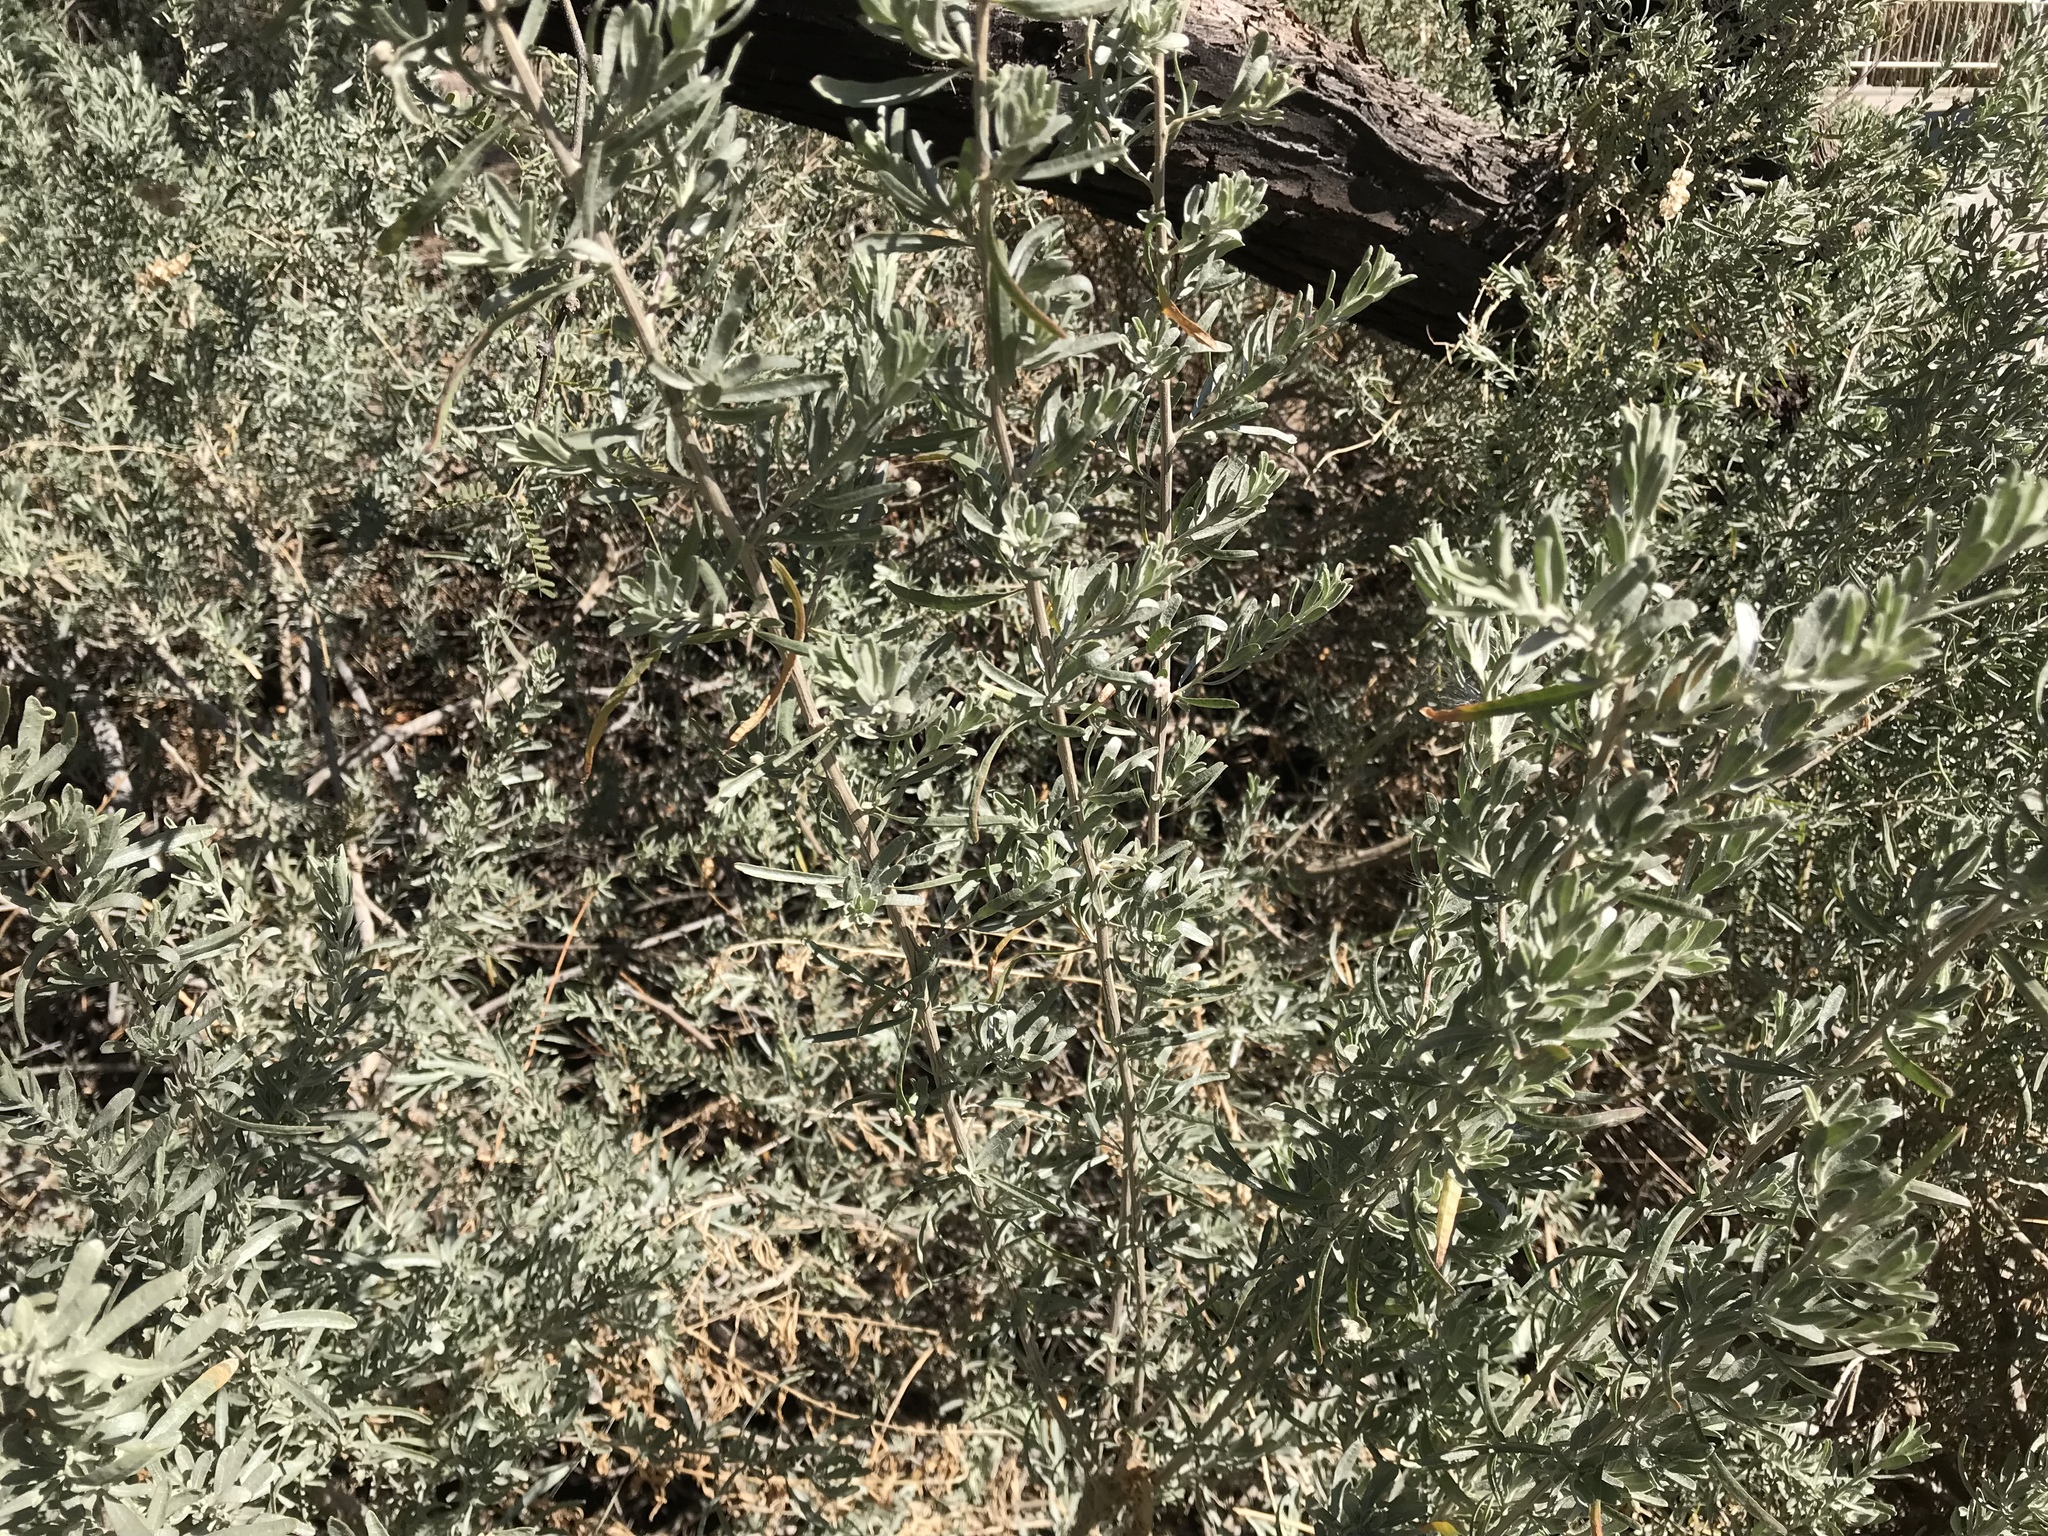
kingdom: Plantae
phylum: Tracheophyta
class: Magnoliopsida
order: Caryophyllales
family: Amaranthaceae
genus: Atriplex
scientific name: Atriplex canescens
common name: Four-wing saltbush
